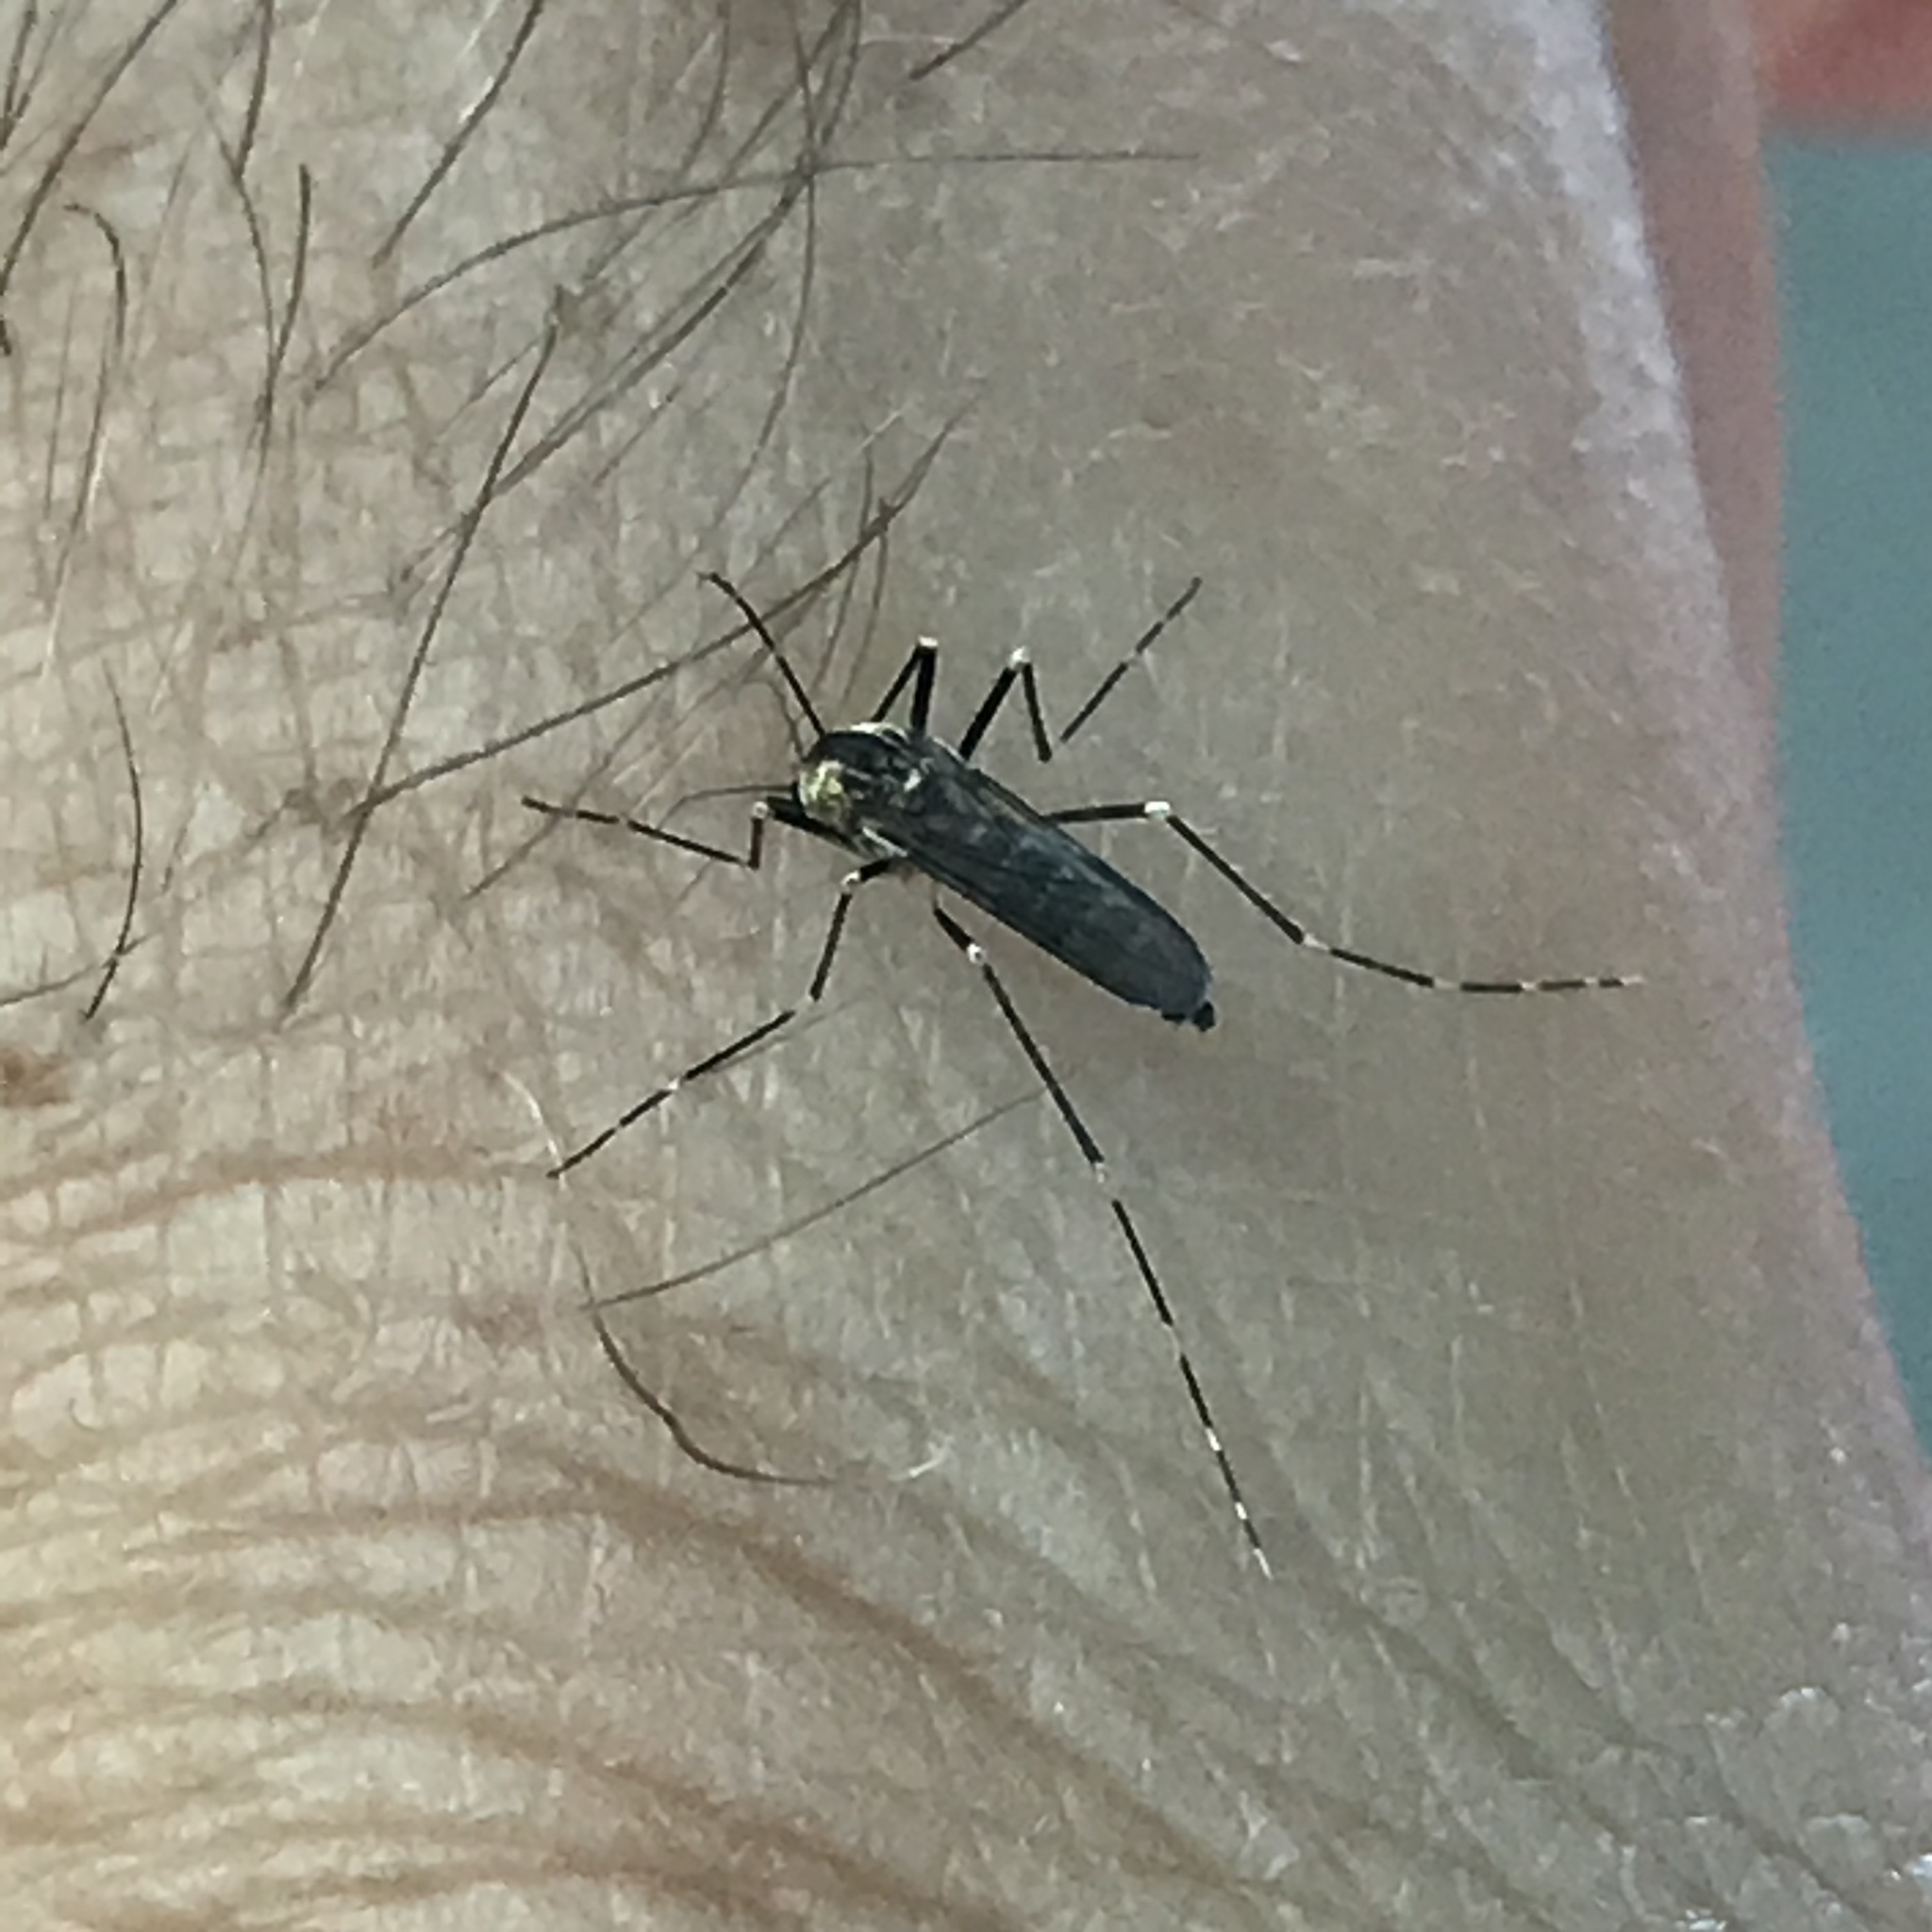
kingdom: Animalia
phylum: Arthropoda
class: Insecta
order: Diptera
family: Culicidae
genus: Aedes
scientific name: Aedes atropalpus
